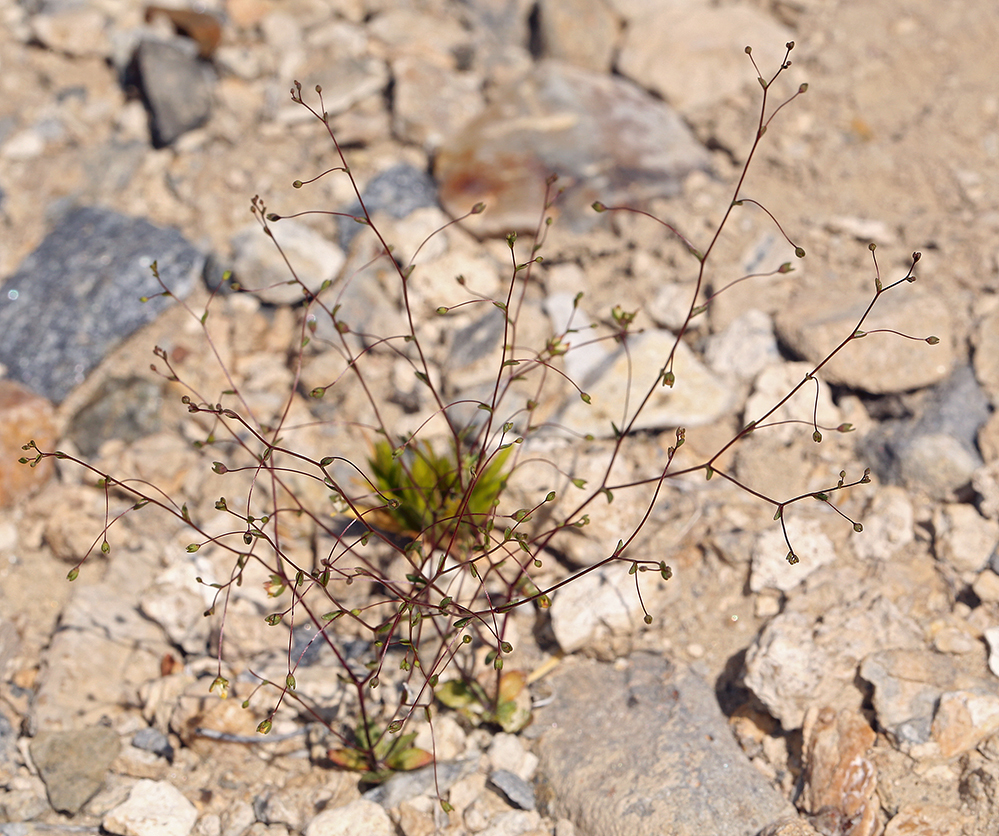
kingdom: Plantae
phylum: Tracheophyta
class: Magnoliopsida
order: Asterales
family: Campanulaceae
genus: Nemacladus
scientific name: Nemacladus morefieldii
